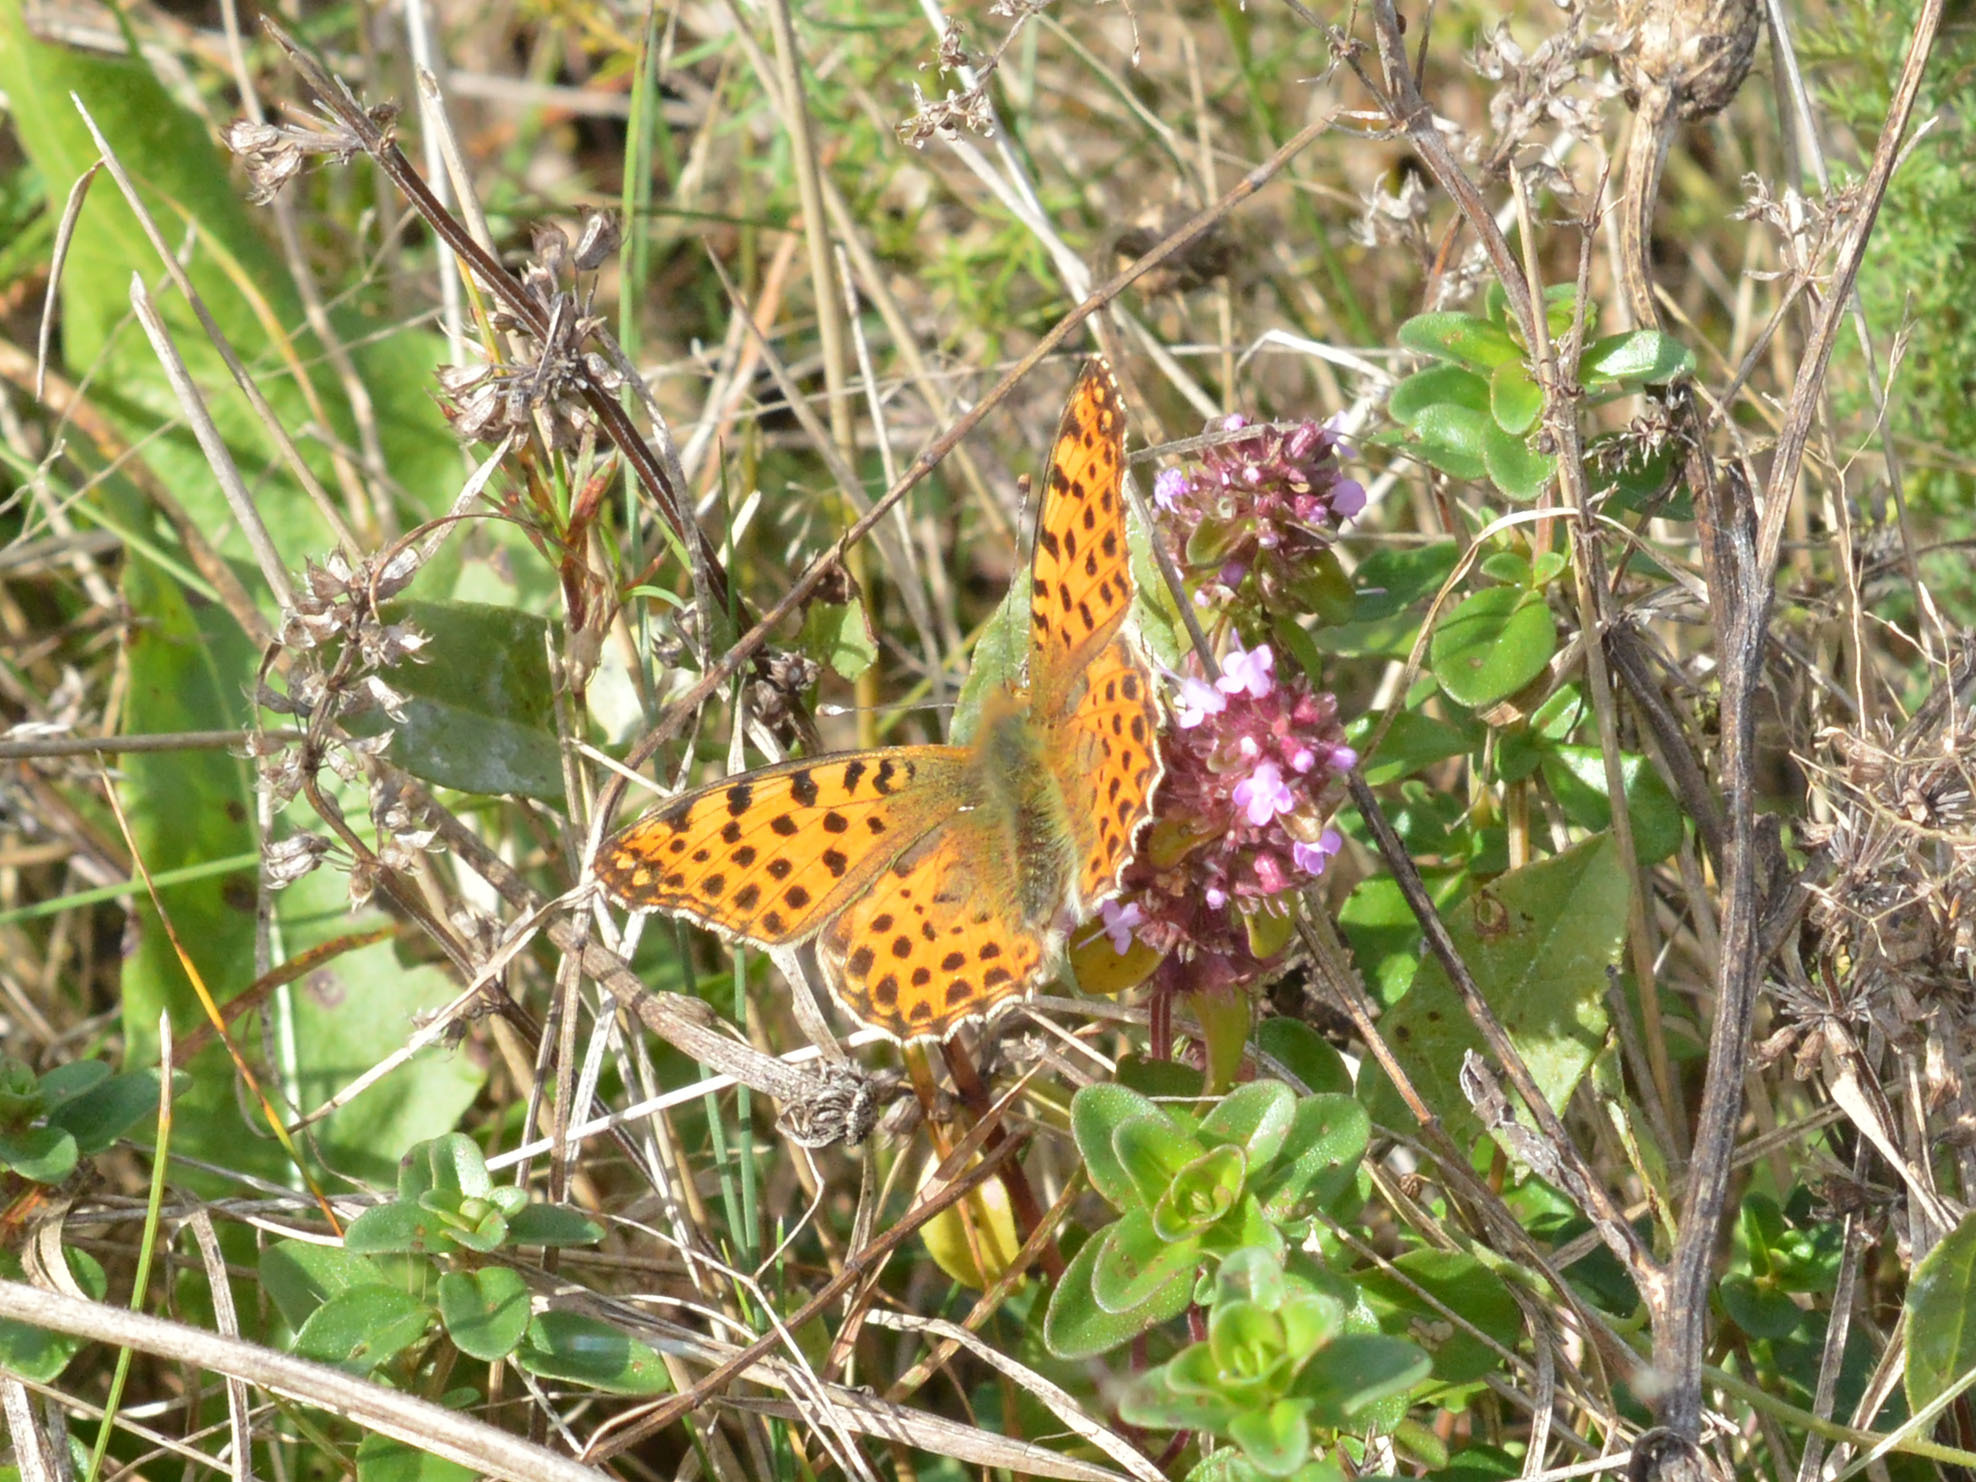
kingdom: Animalia
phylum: Arthropoda
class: Insecta
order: Lepidoptera
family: Nymphalidae
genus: Issoria
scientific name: Issoria lathonia
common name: Queen of spain fritillary
